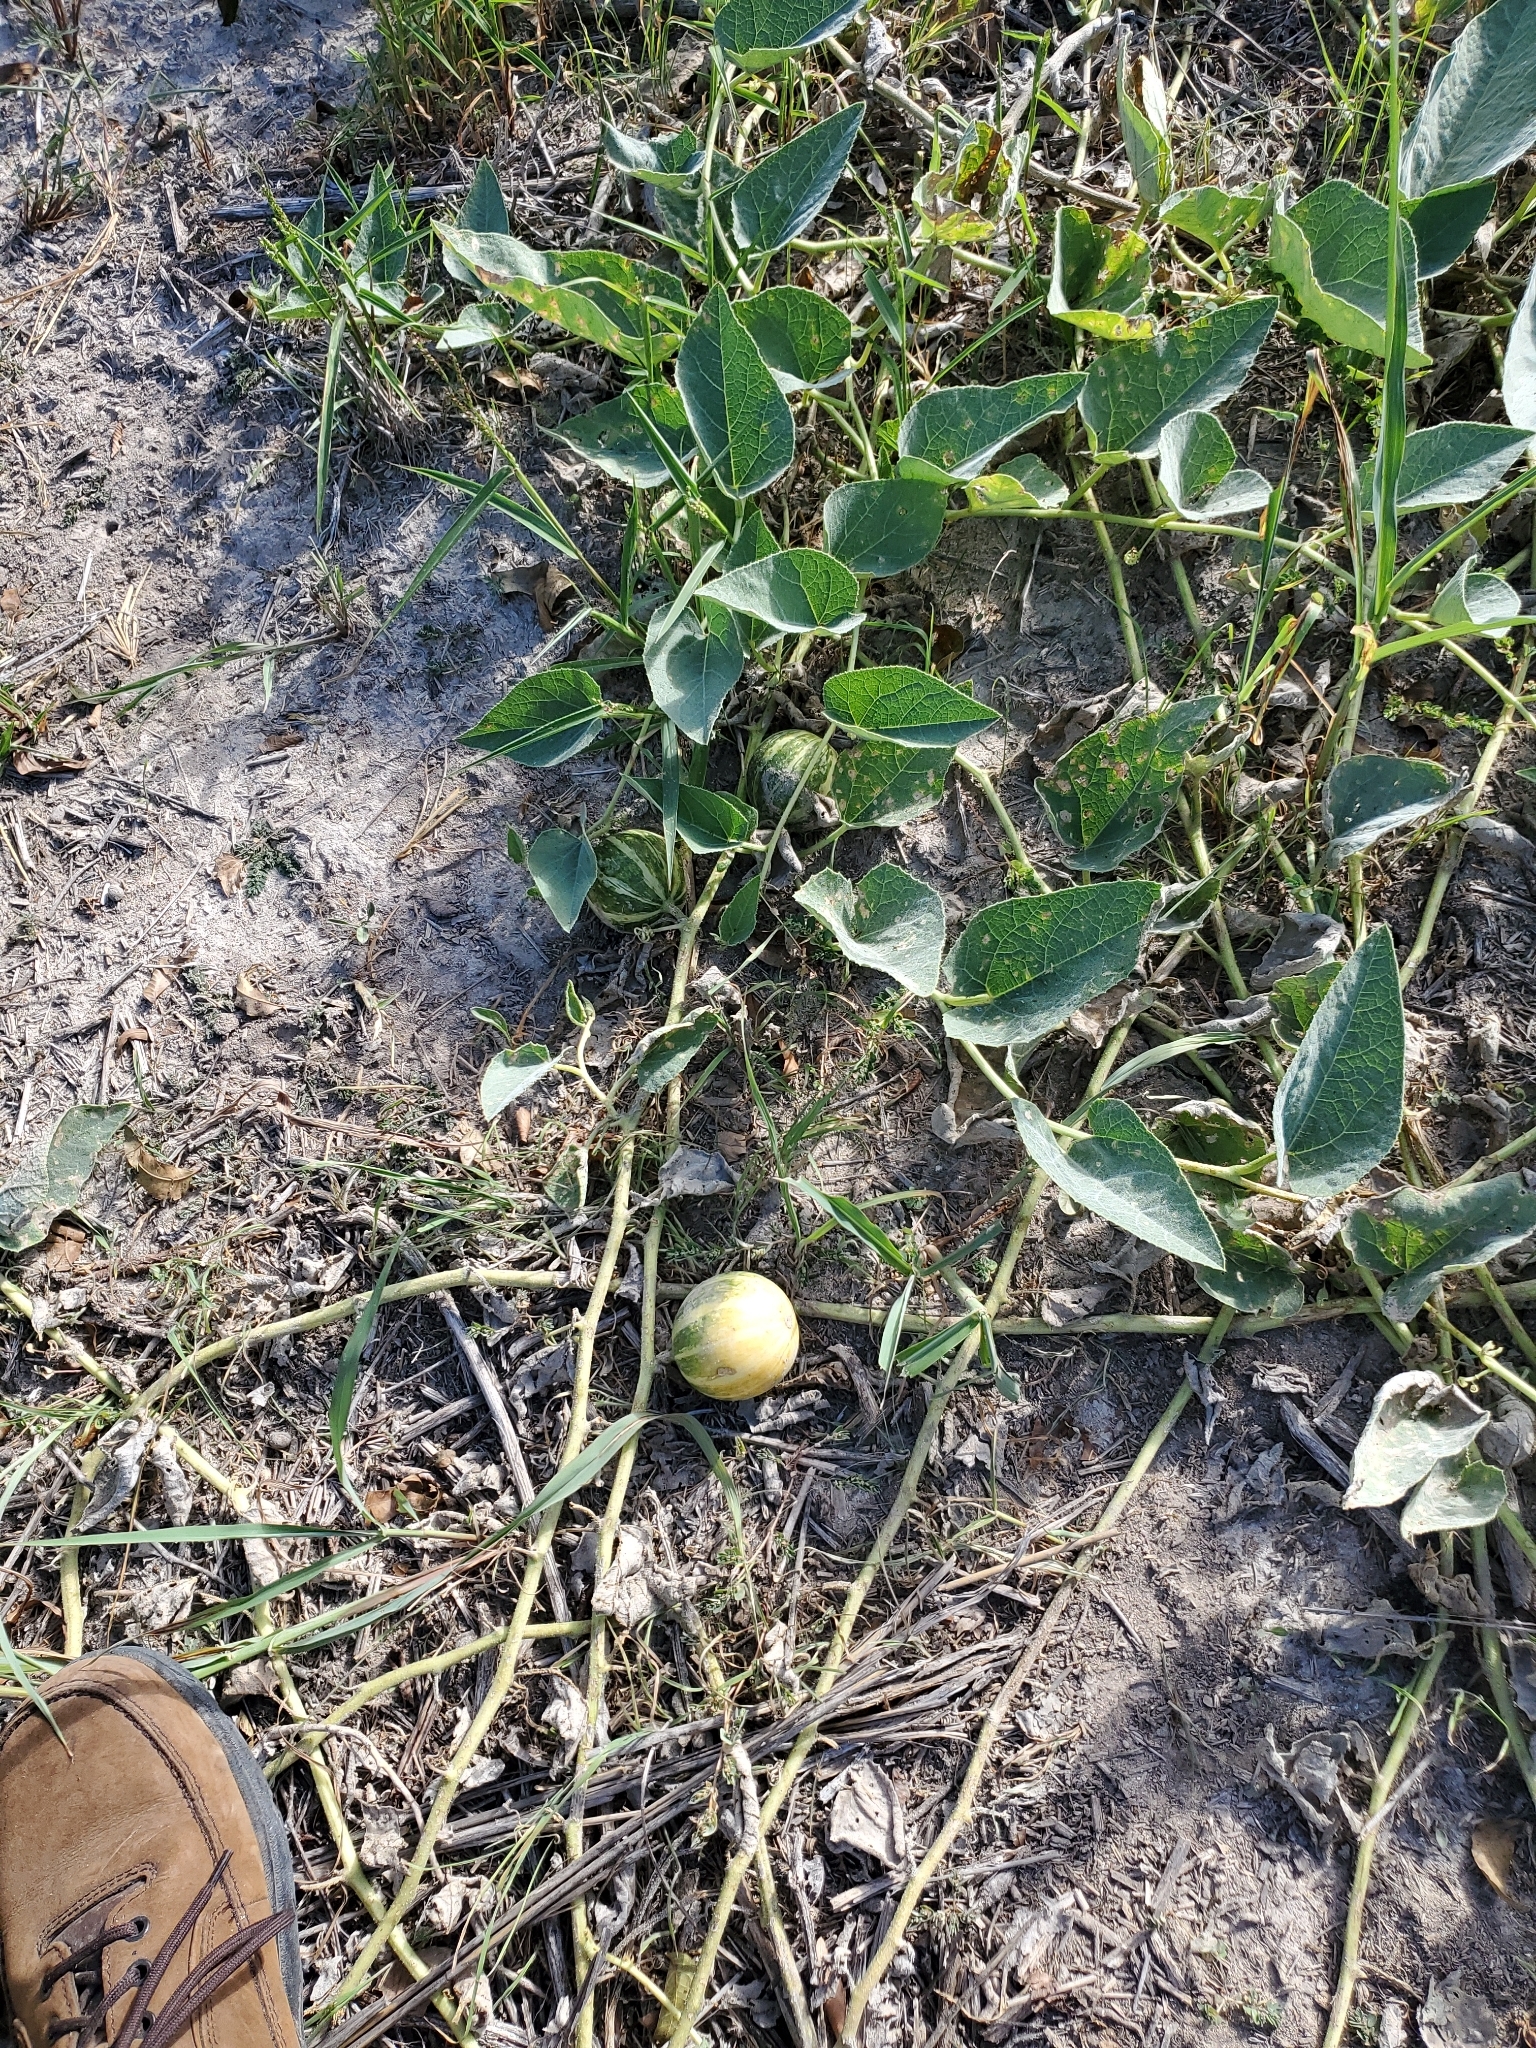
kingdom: Plantae
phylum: Tracheophyta
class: Magnoliopsida
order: Cucurbitales
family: Cucurbitaceae
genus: Cucurbita
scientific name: Cucurbita foetidissima
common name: Buffalo gourd
